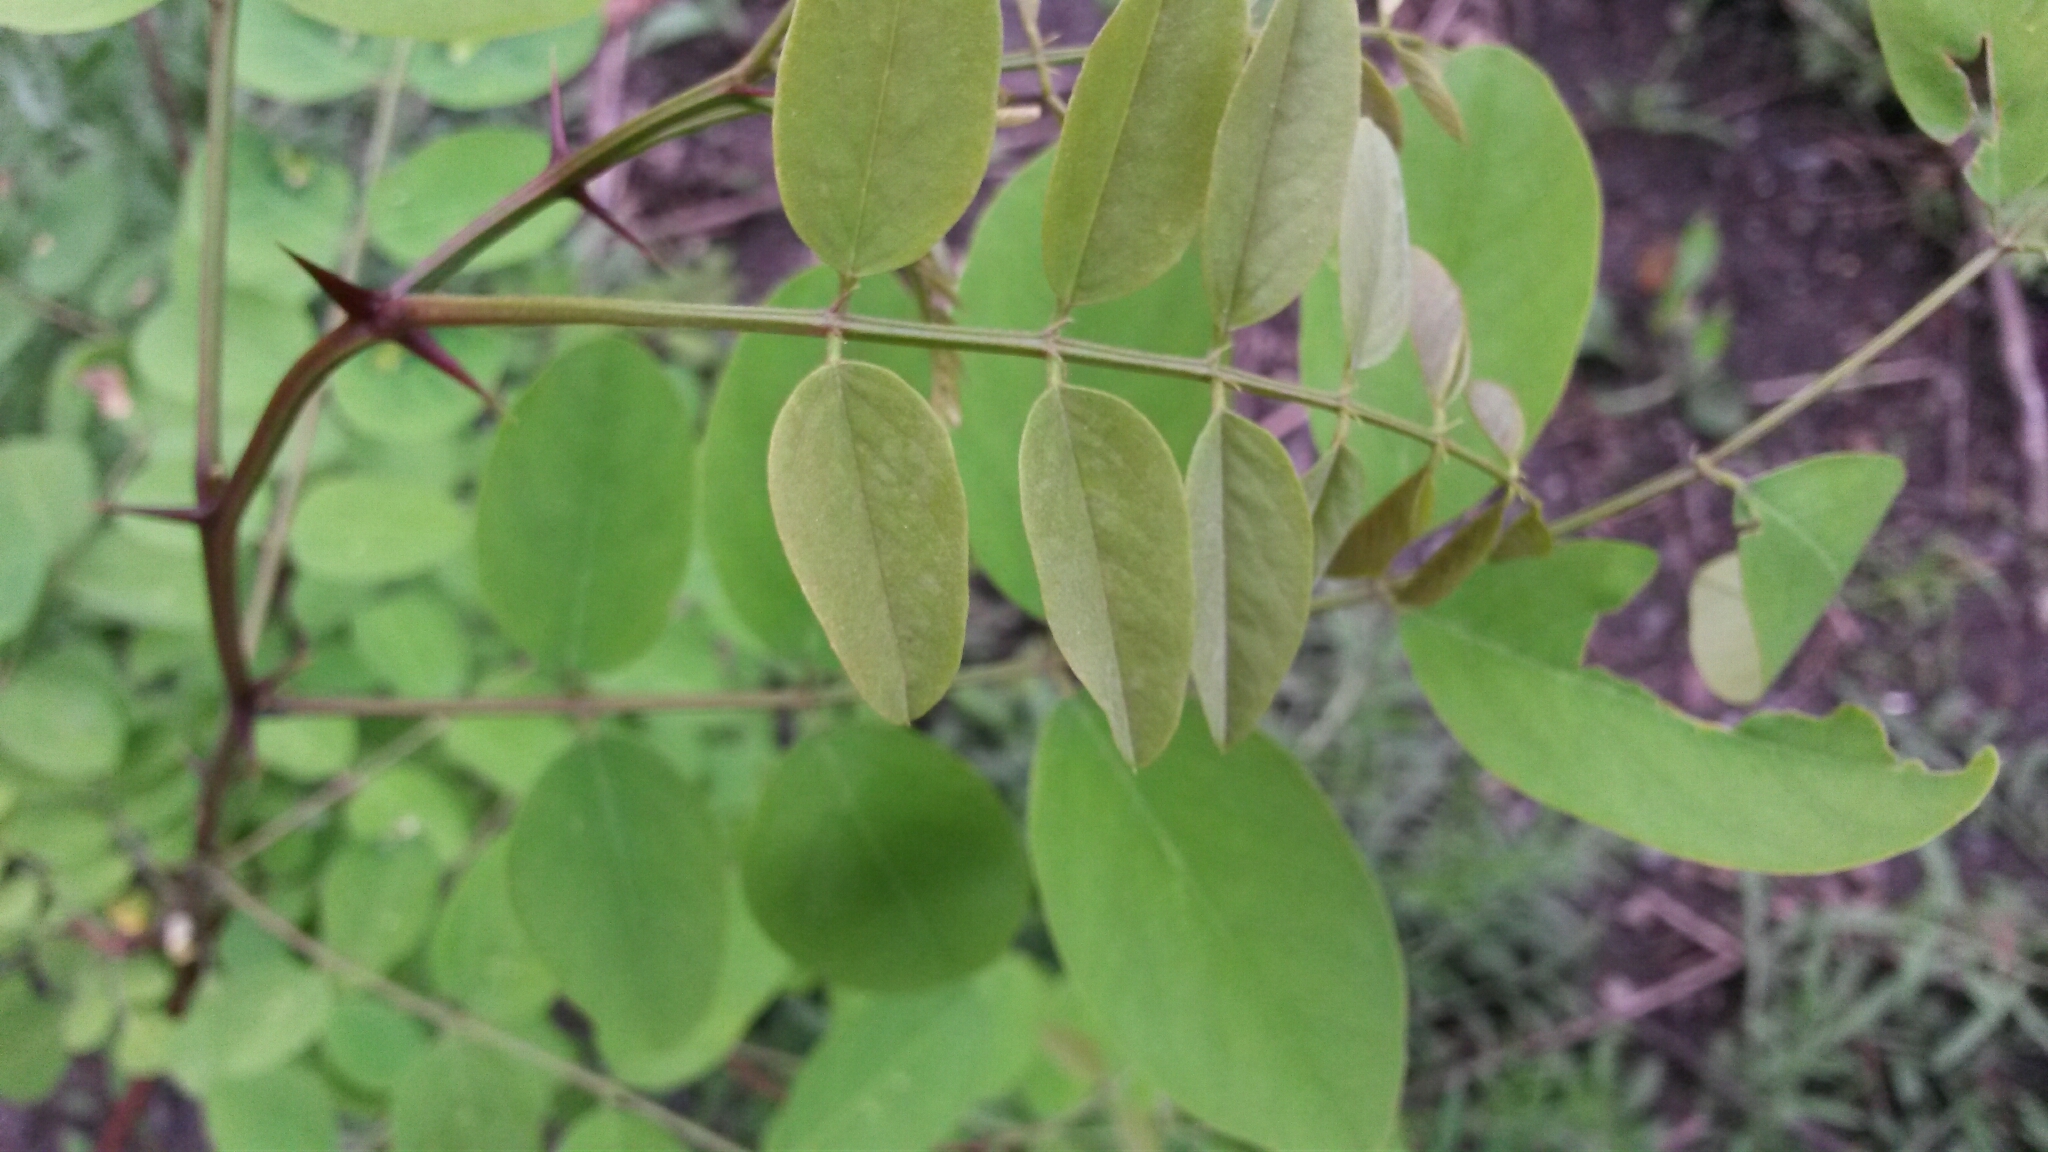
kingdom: Plantae
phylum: Tracheophyta
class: Magnoliopsida
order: Fabales
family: Fabaceae
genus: Robinia
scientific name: Robinia pseudoacacia
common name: Black locust
